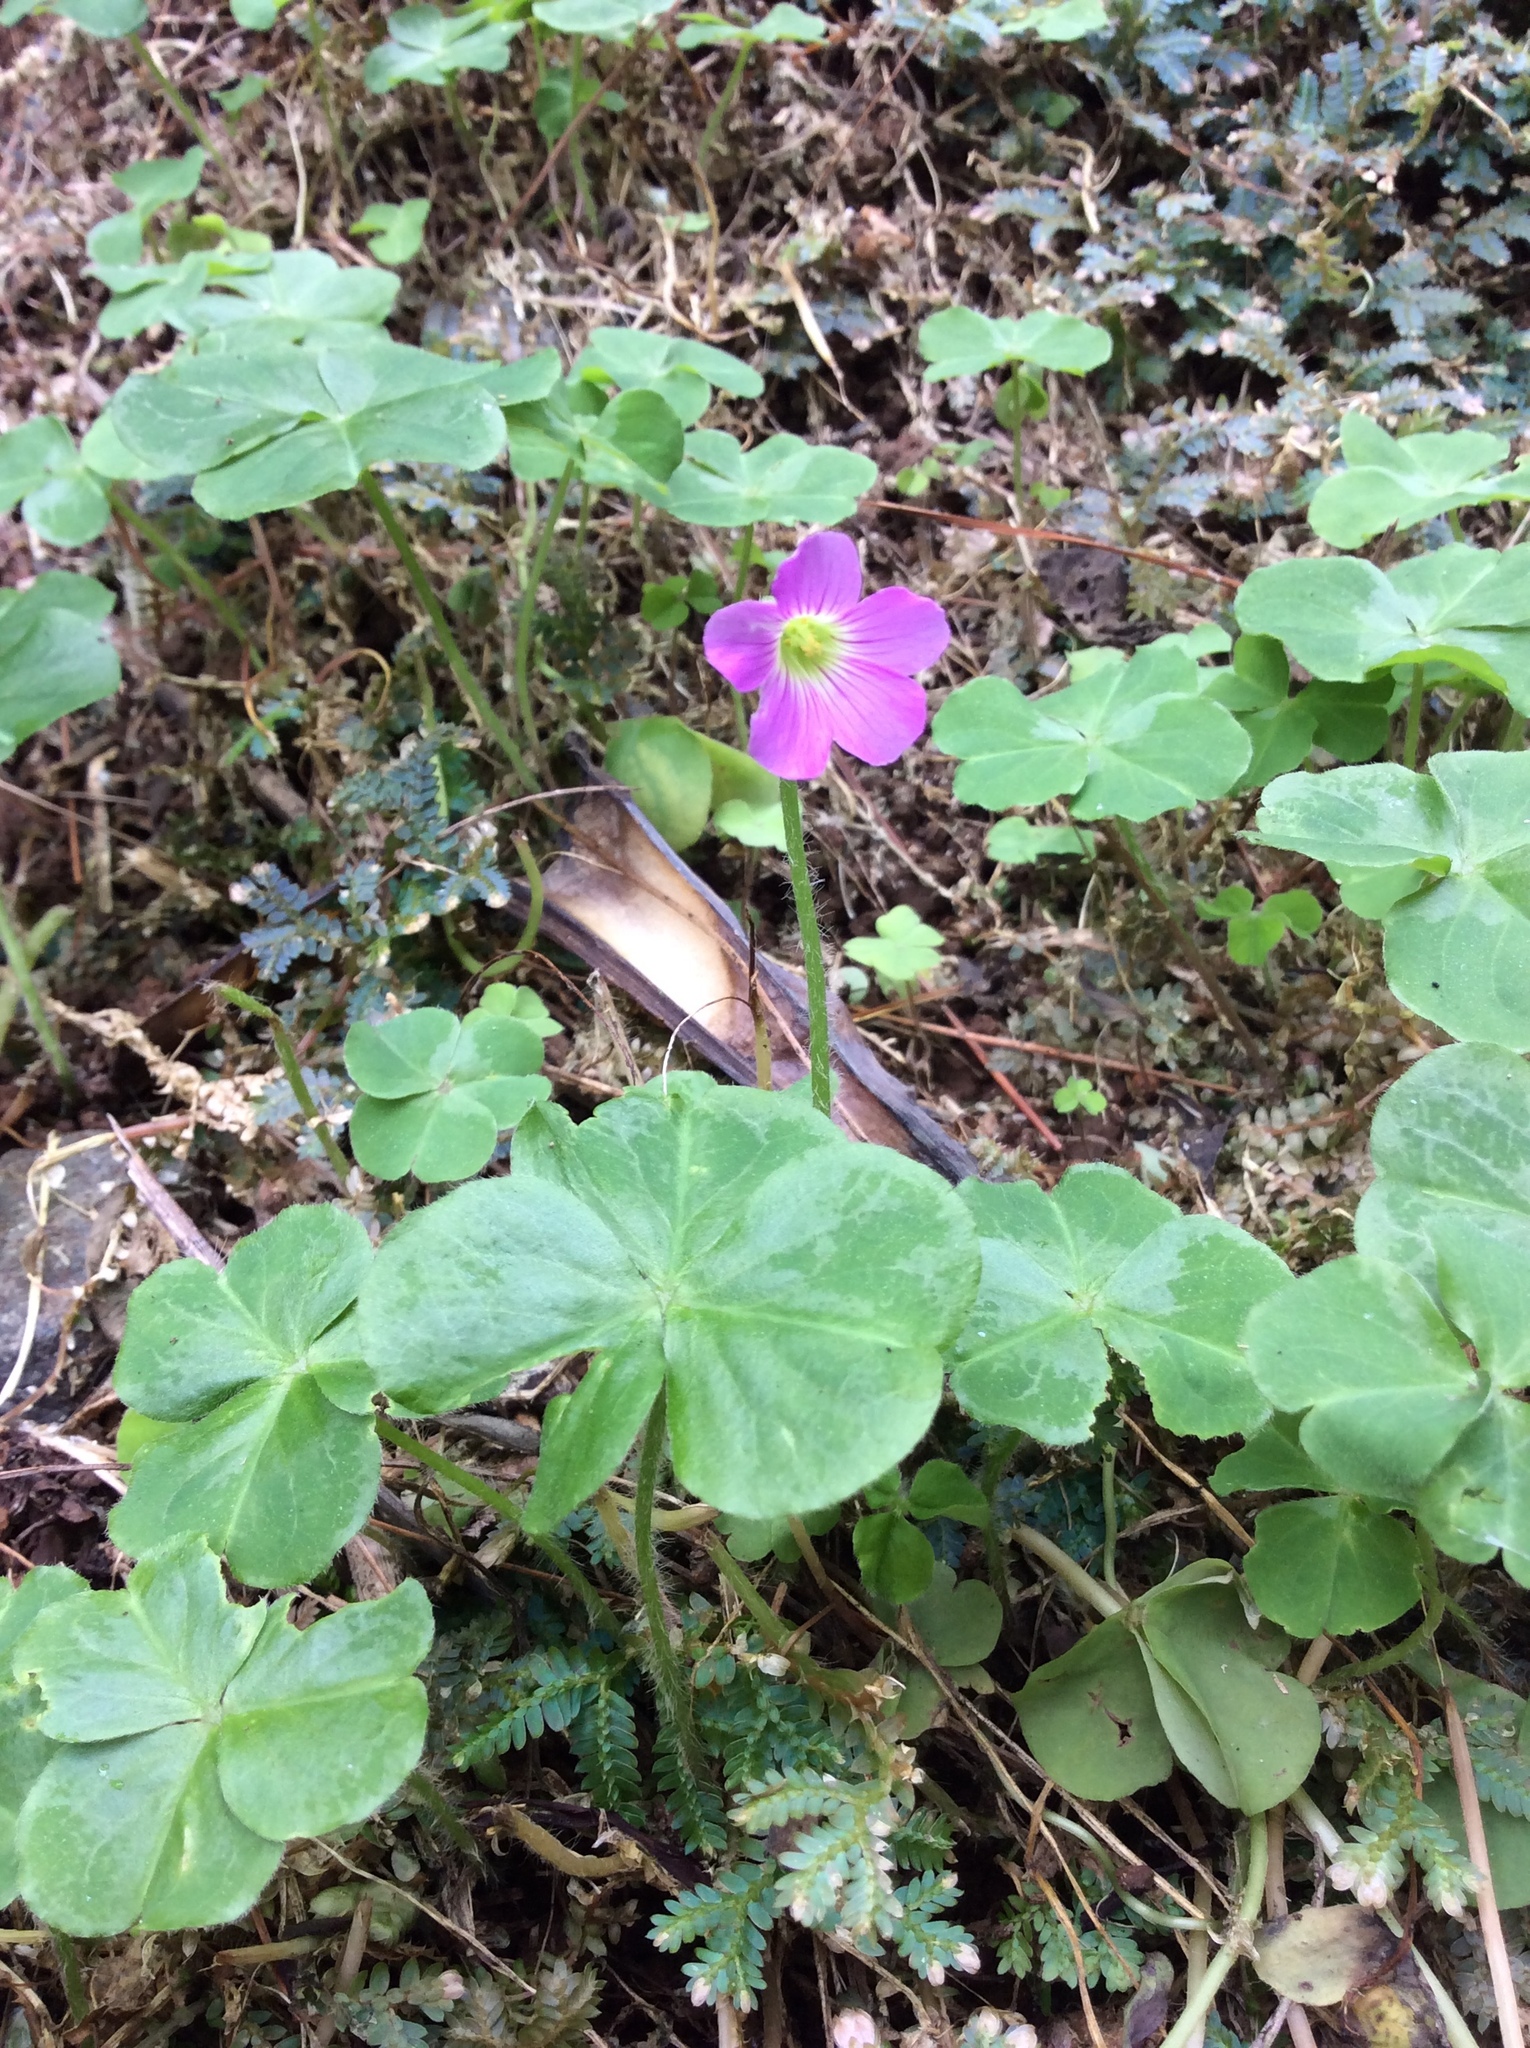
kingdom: Plantae
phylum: Tracheophyta
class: Magnoliopsida
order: Oxalidales
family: Oxalidaceae
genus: Oxalis
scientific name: Oxalis debilis
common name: Large-flowered pink-sorrel
